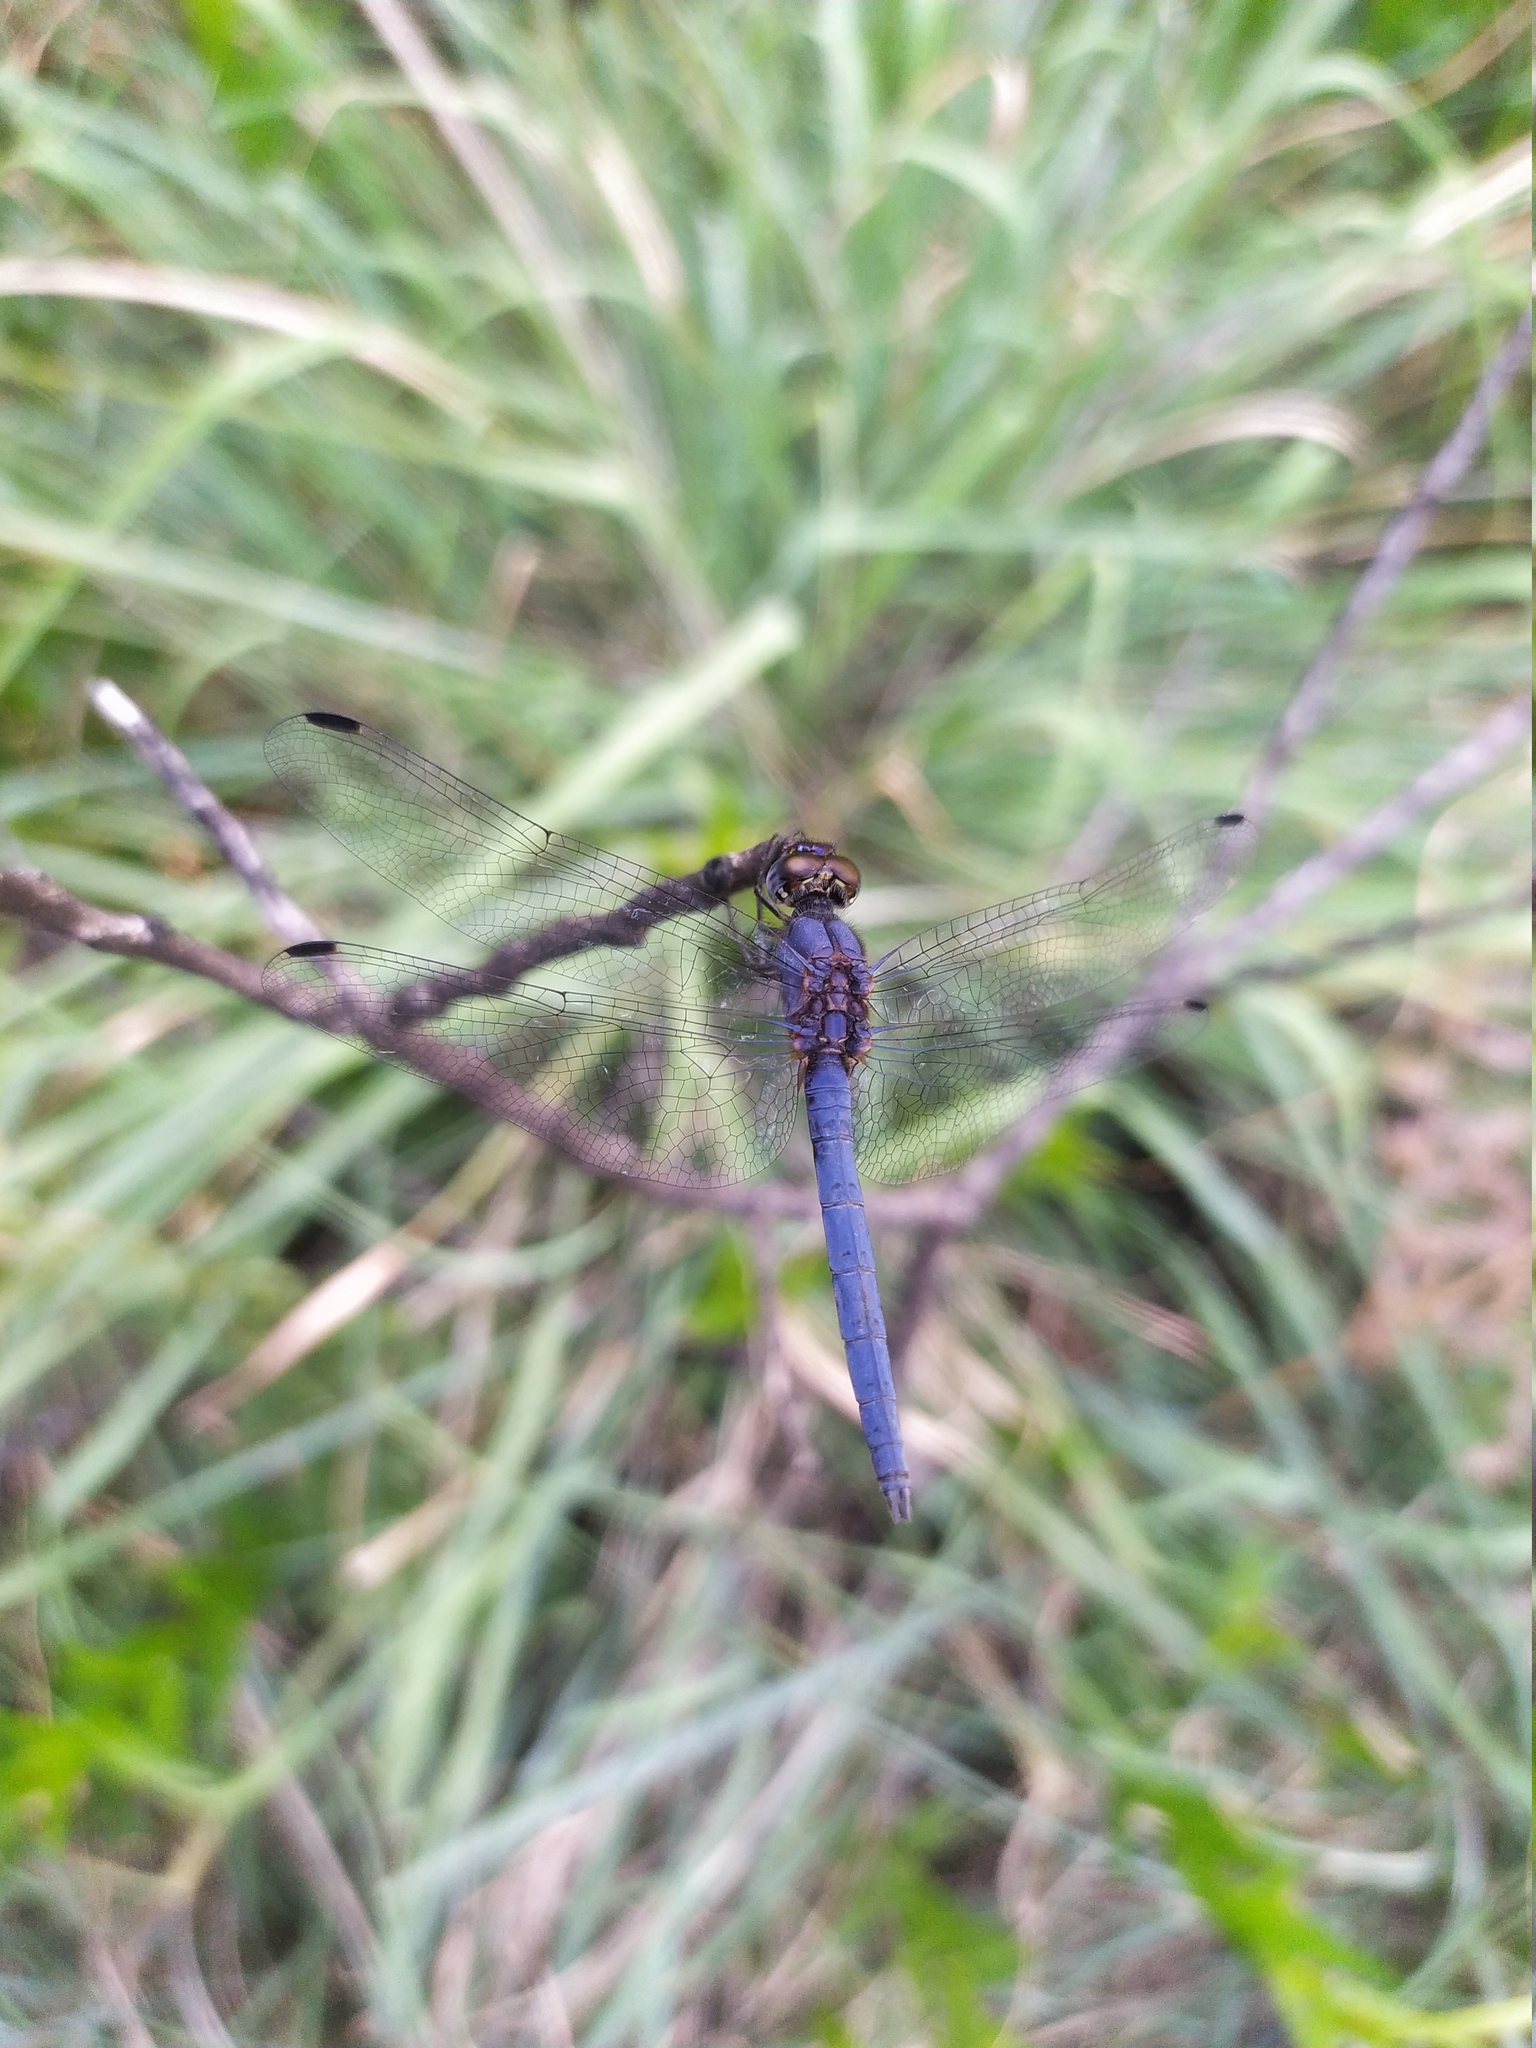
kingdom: Animalia
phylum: Arthropoda
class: Insecta
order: Odonata
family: Libellulidae
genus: Trithemis
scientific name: Trithemis furva
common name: Dark dropwing
